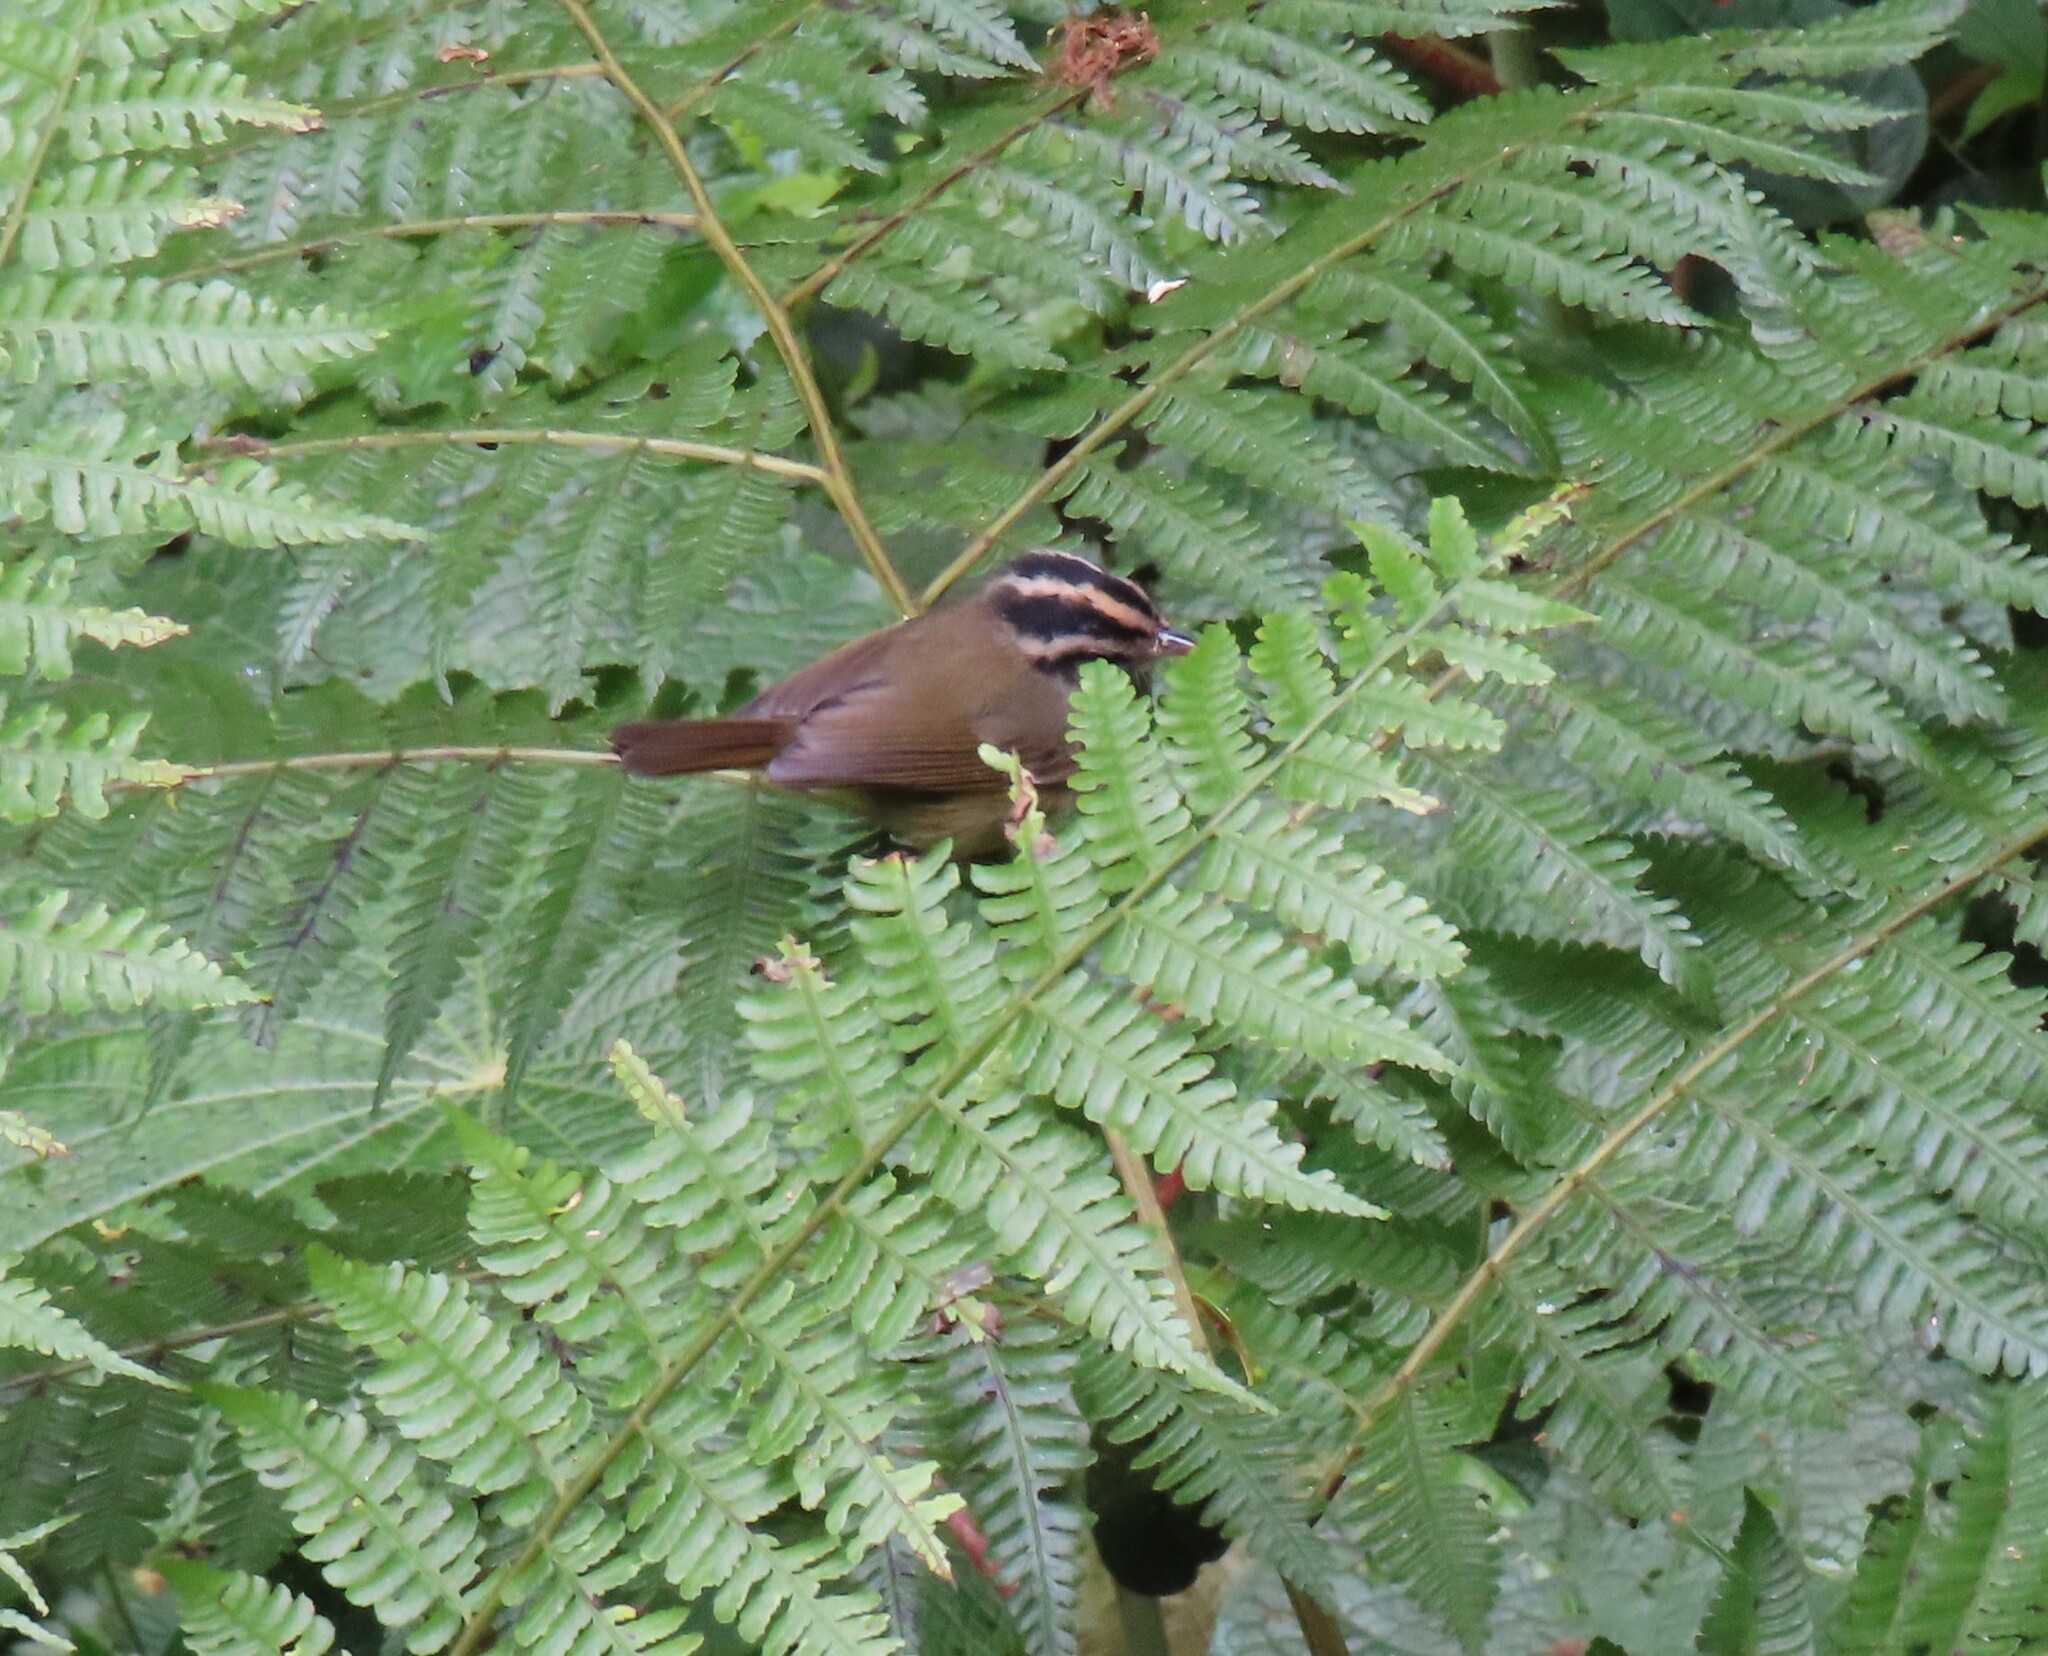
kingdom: Animalia
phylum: Chordata
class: Aves
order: Passeriformes
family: Parulidae
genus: Basileuterus
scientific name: Basileuterus melanotis
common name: Black-eared warbler
